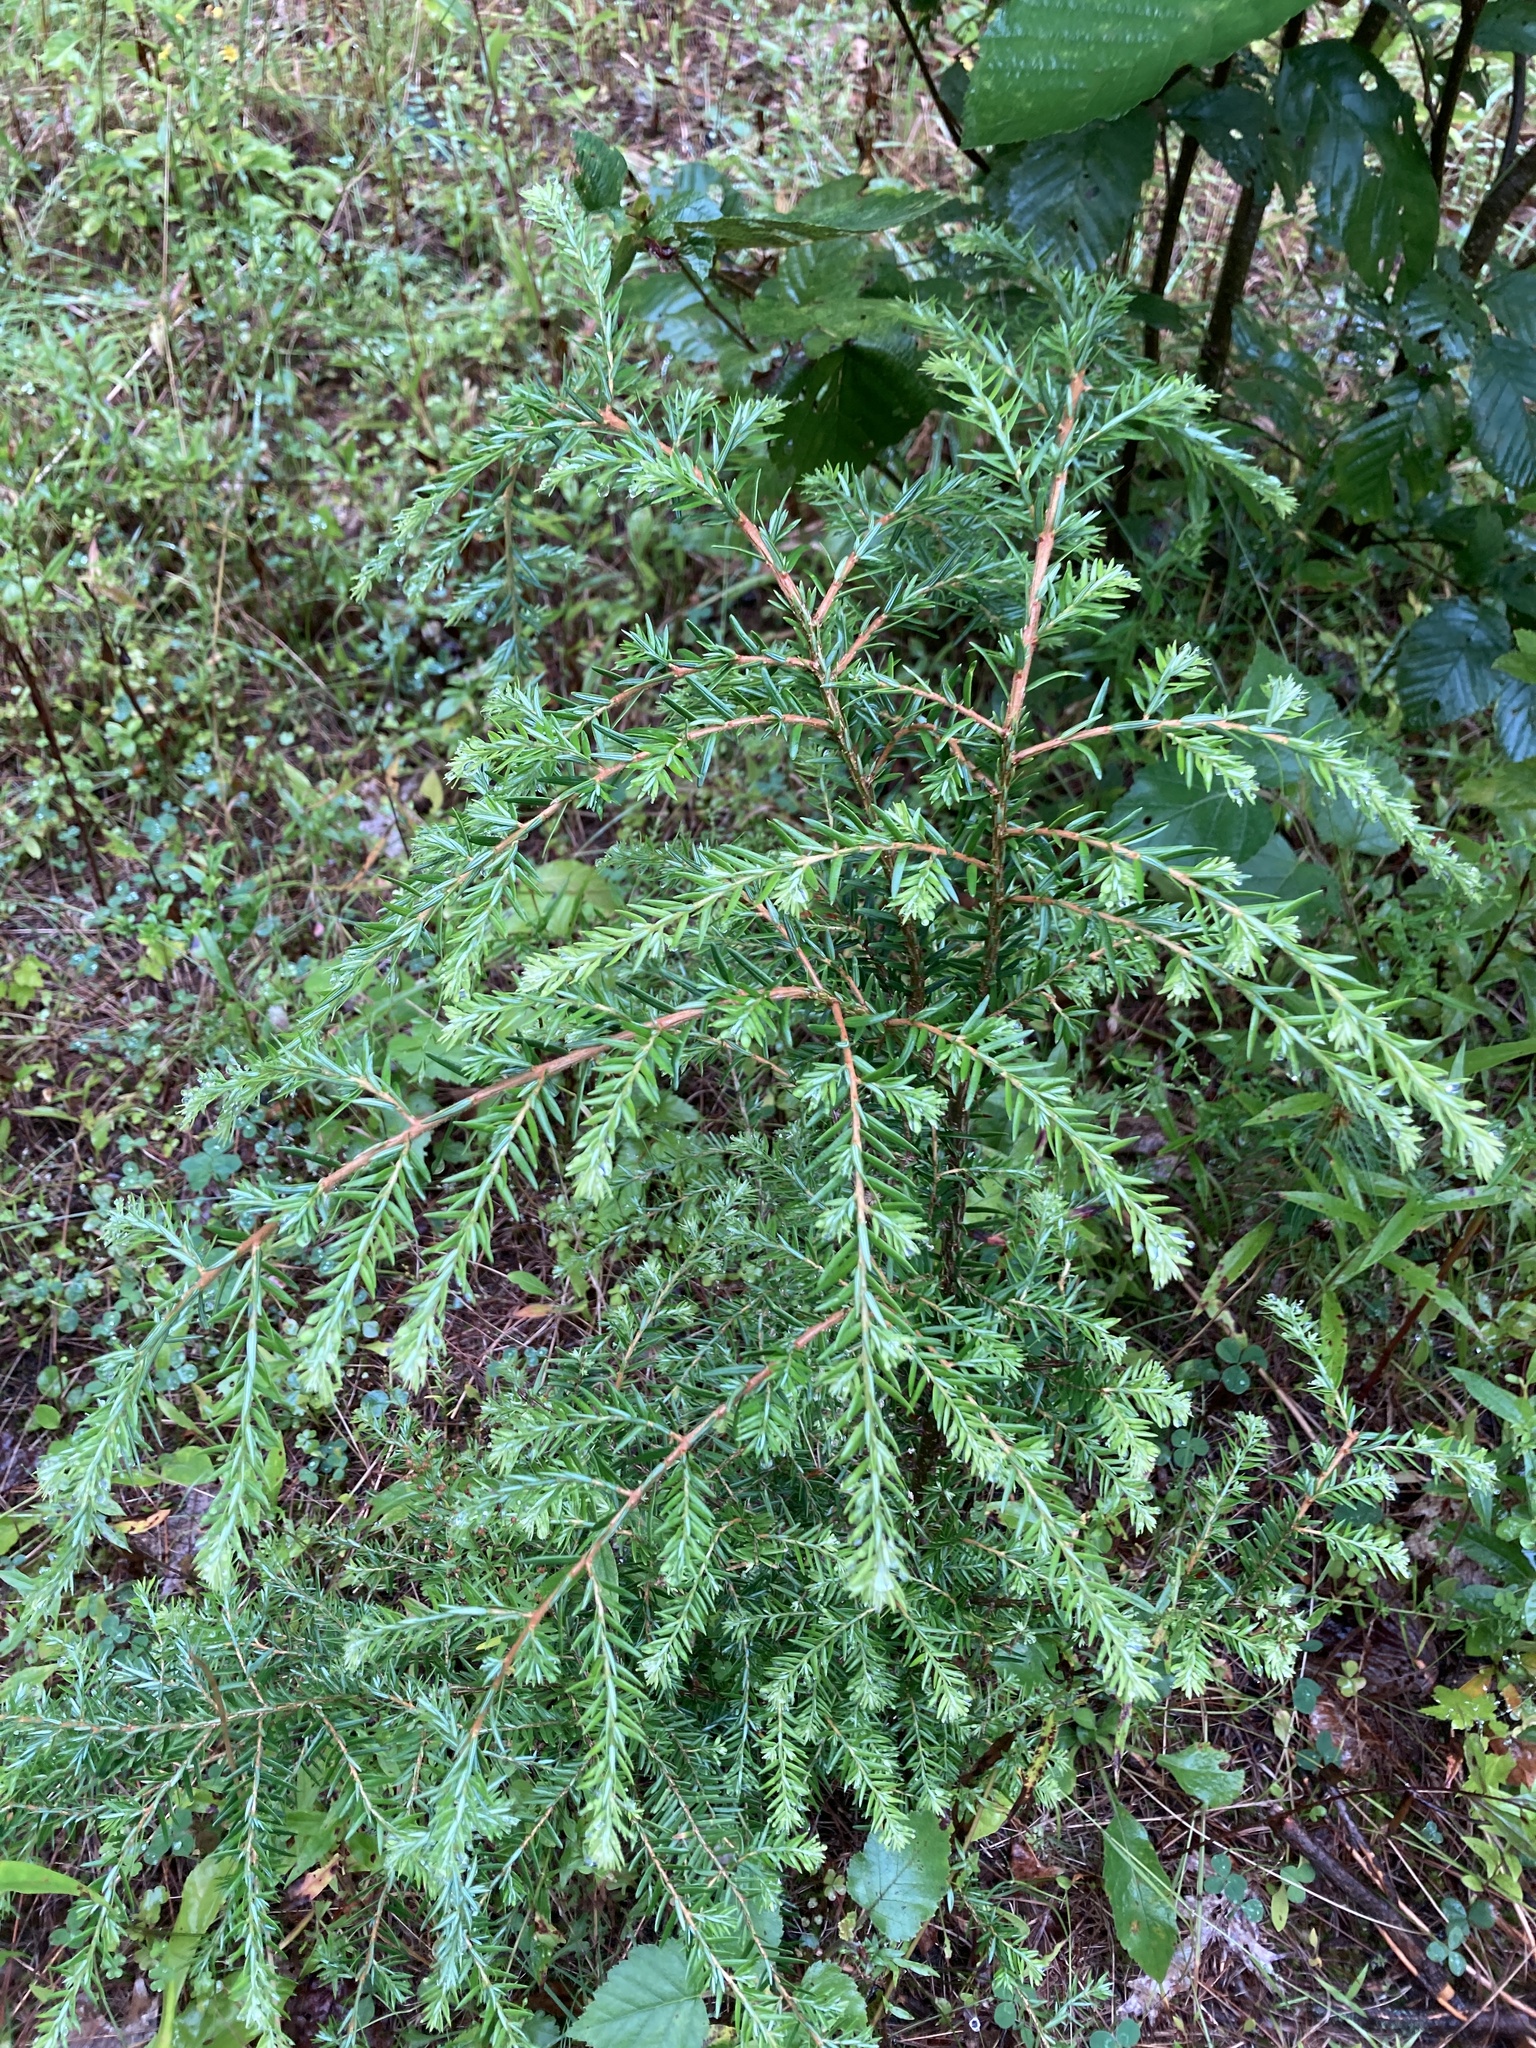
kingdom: Plantae
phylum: Tracheophyta
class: Pinopsida
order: Pinales
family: Pinaceae
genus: Tsuga
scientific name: Tsuga canadensis
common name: Eastern hemlock
